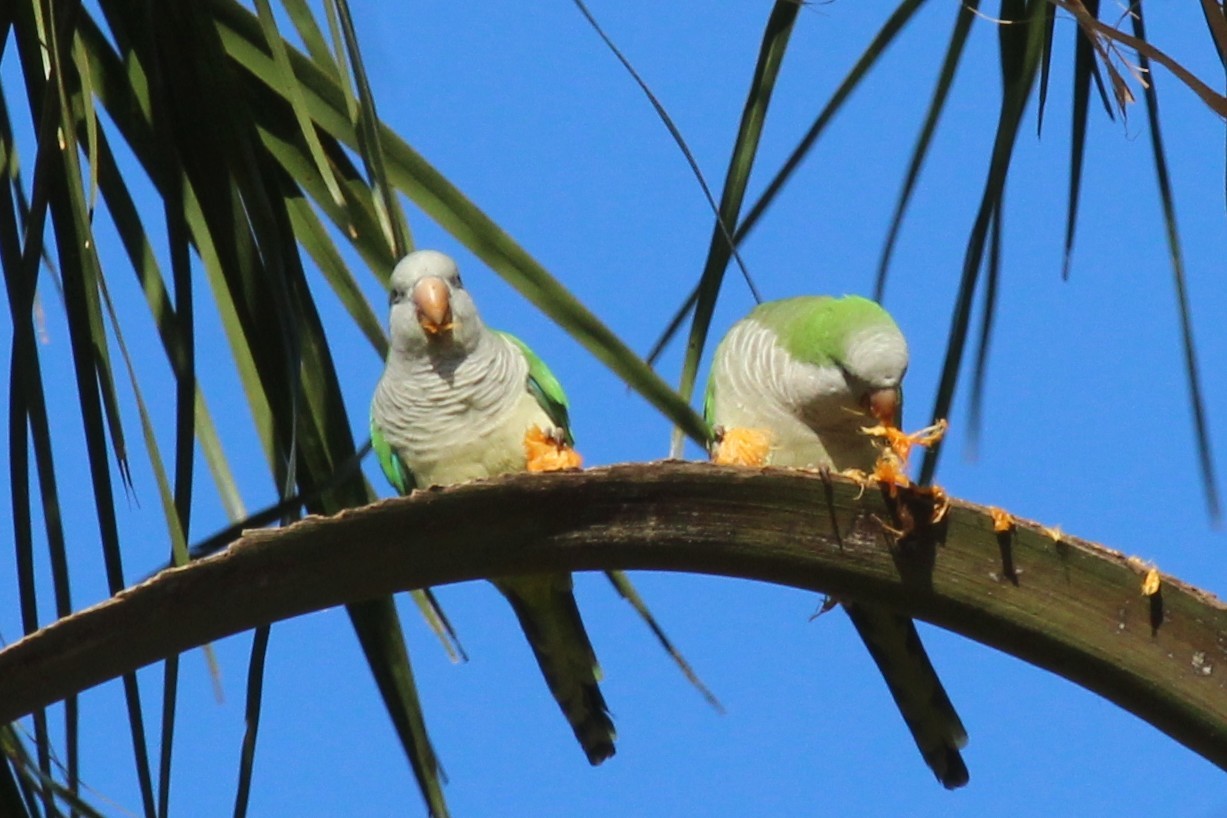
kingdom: Animalia
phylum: Chordata
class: Aves
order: Psittaciformes
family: Psittacidae
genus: Myiopsitta
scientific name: Myiopsitta monachus
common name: Monk parakeet
